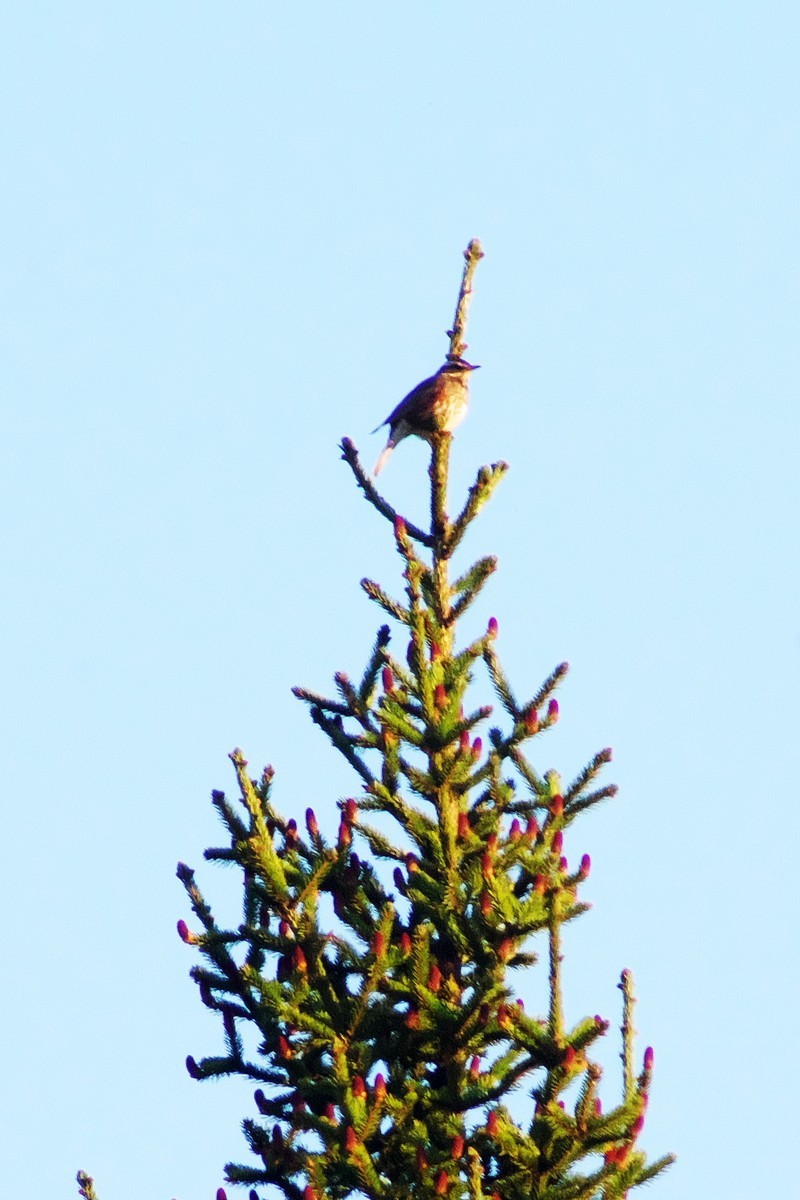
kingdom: Animalia
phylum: Chordata
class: Aves
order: Passeriformes
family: Turdidae
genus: Turdus
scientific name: Turdus iliacus
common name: Redwing
